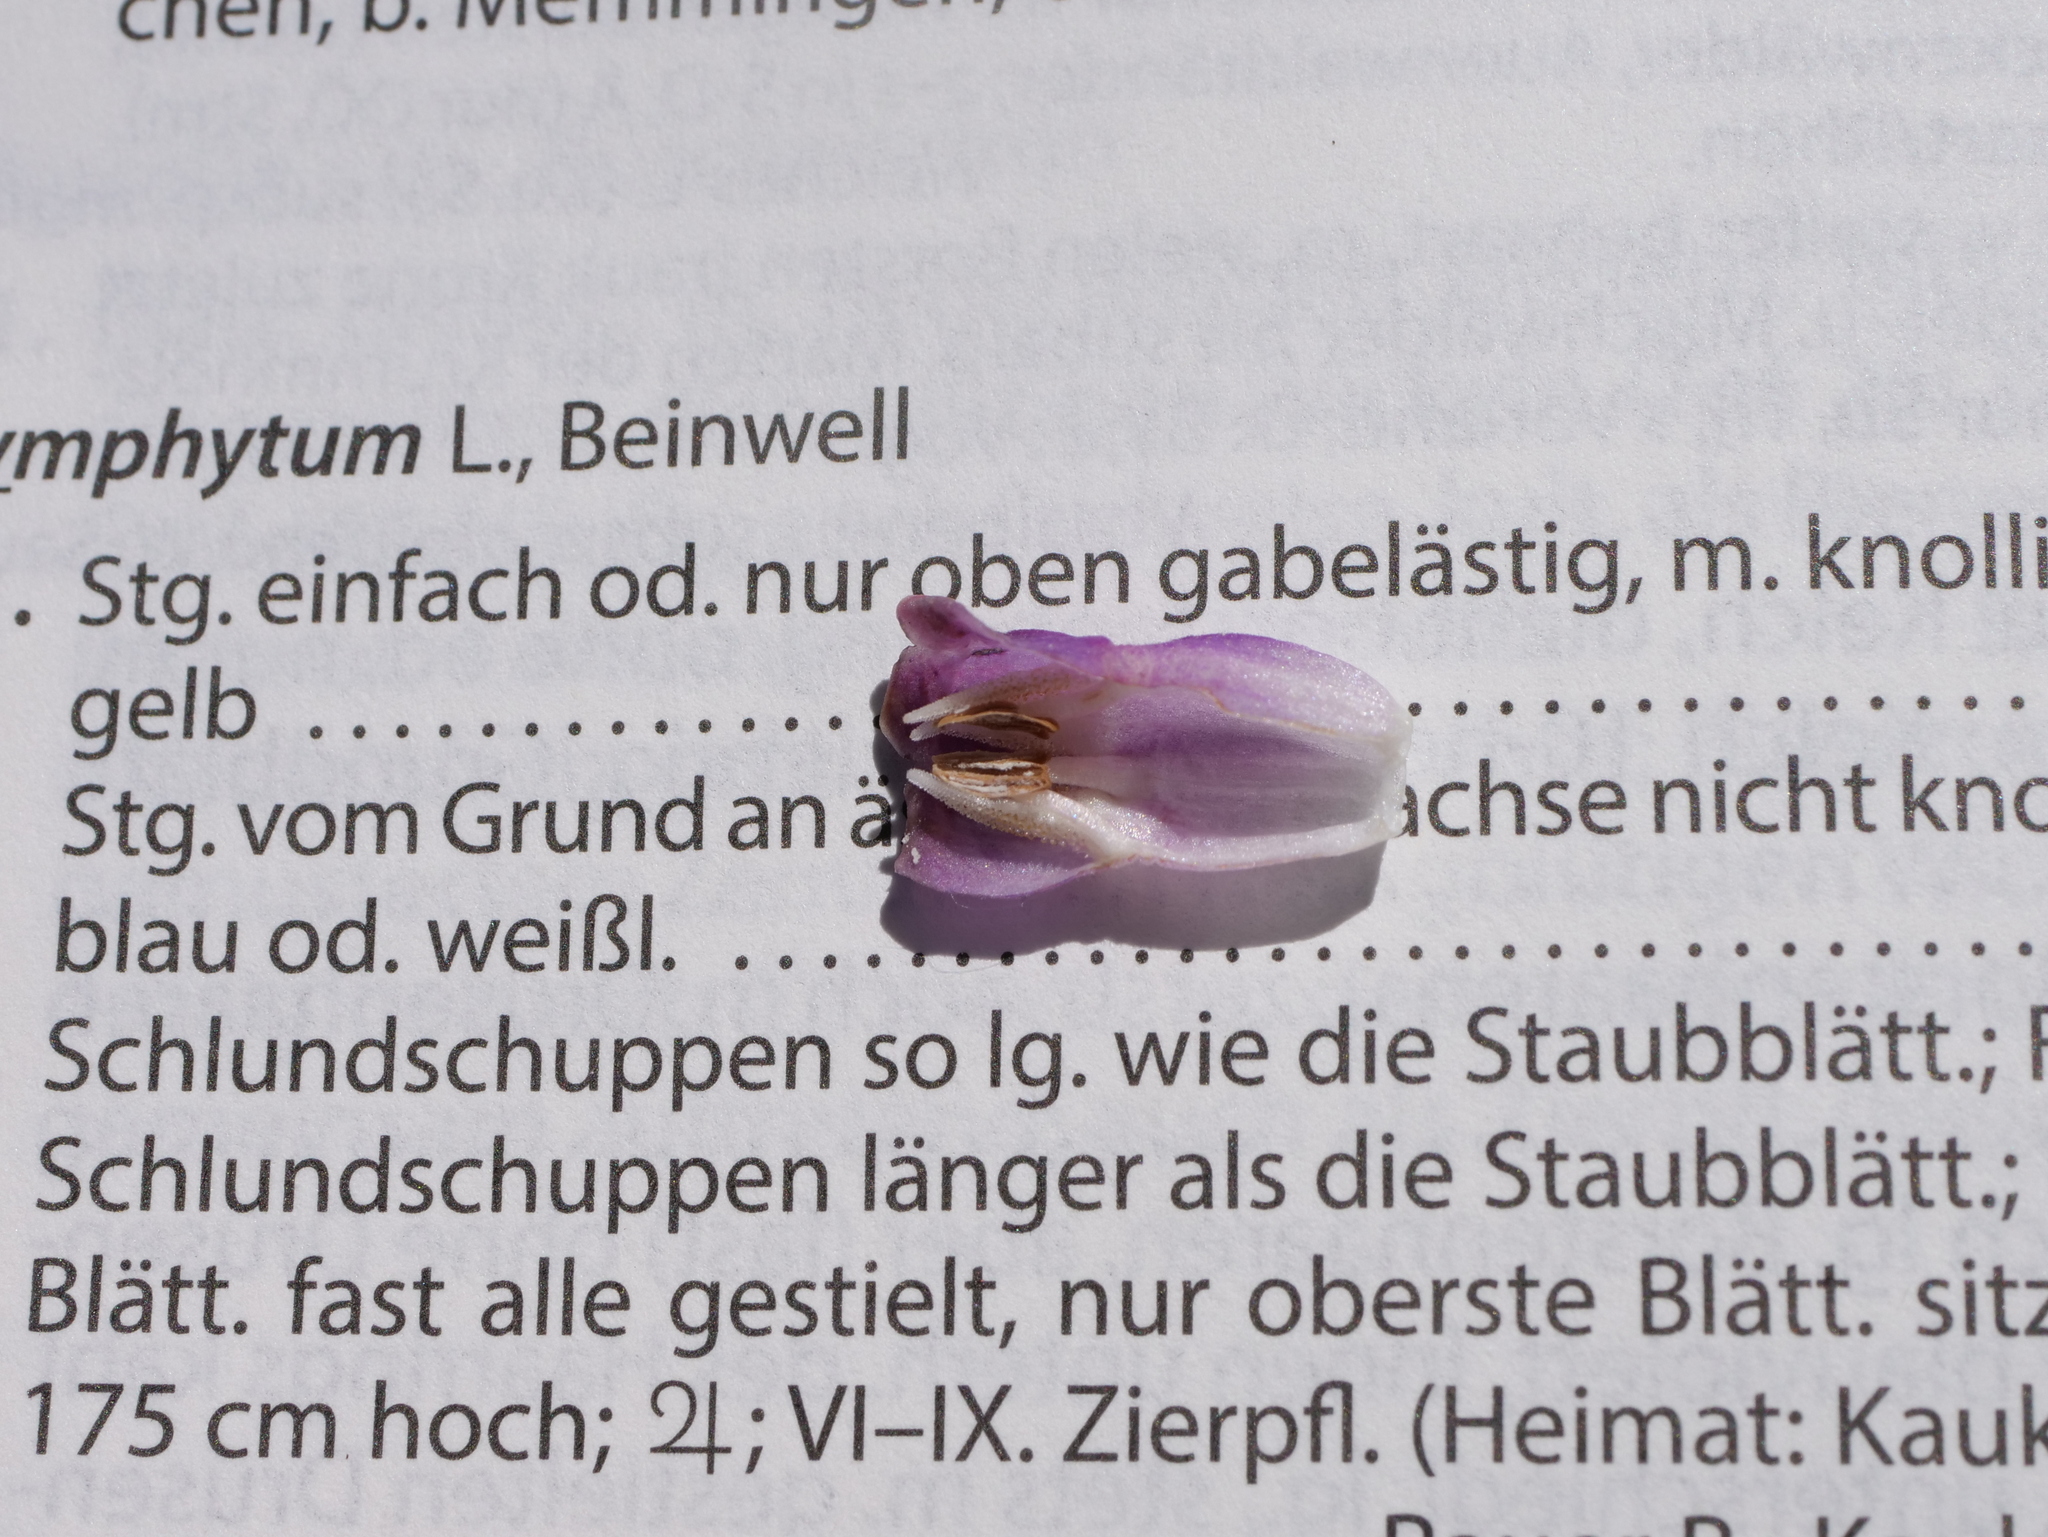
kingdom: Plantae
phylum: Tracheophyta
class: Magnoliopsida
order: Boraginales
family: Boraginaceae
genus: Symphytum
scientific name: Symphytum officinale
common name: Common comfrey
